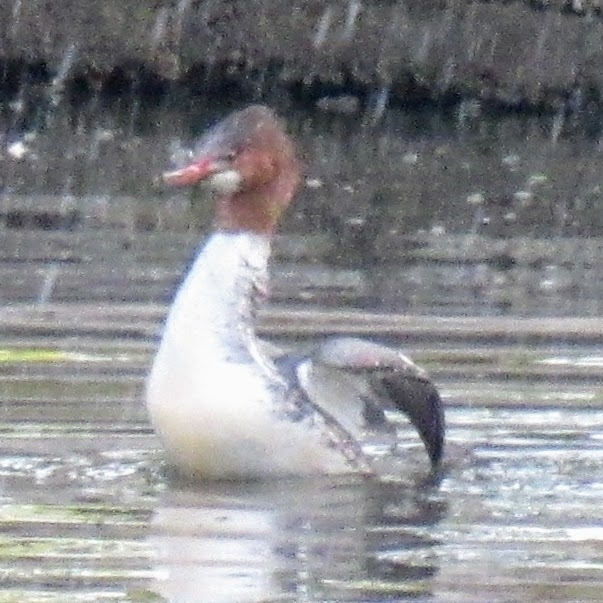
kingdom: Animalia
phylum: Chordata
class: Aves
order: Anseriformes
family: Anatidae
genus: Mergus
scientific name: Mergus merganser
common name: Common merganser
